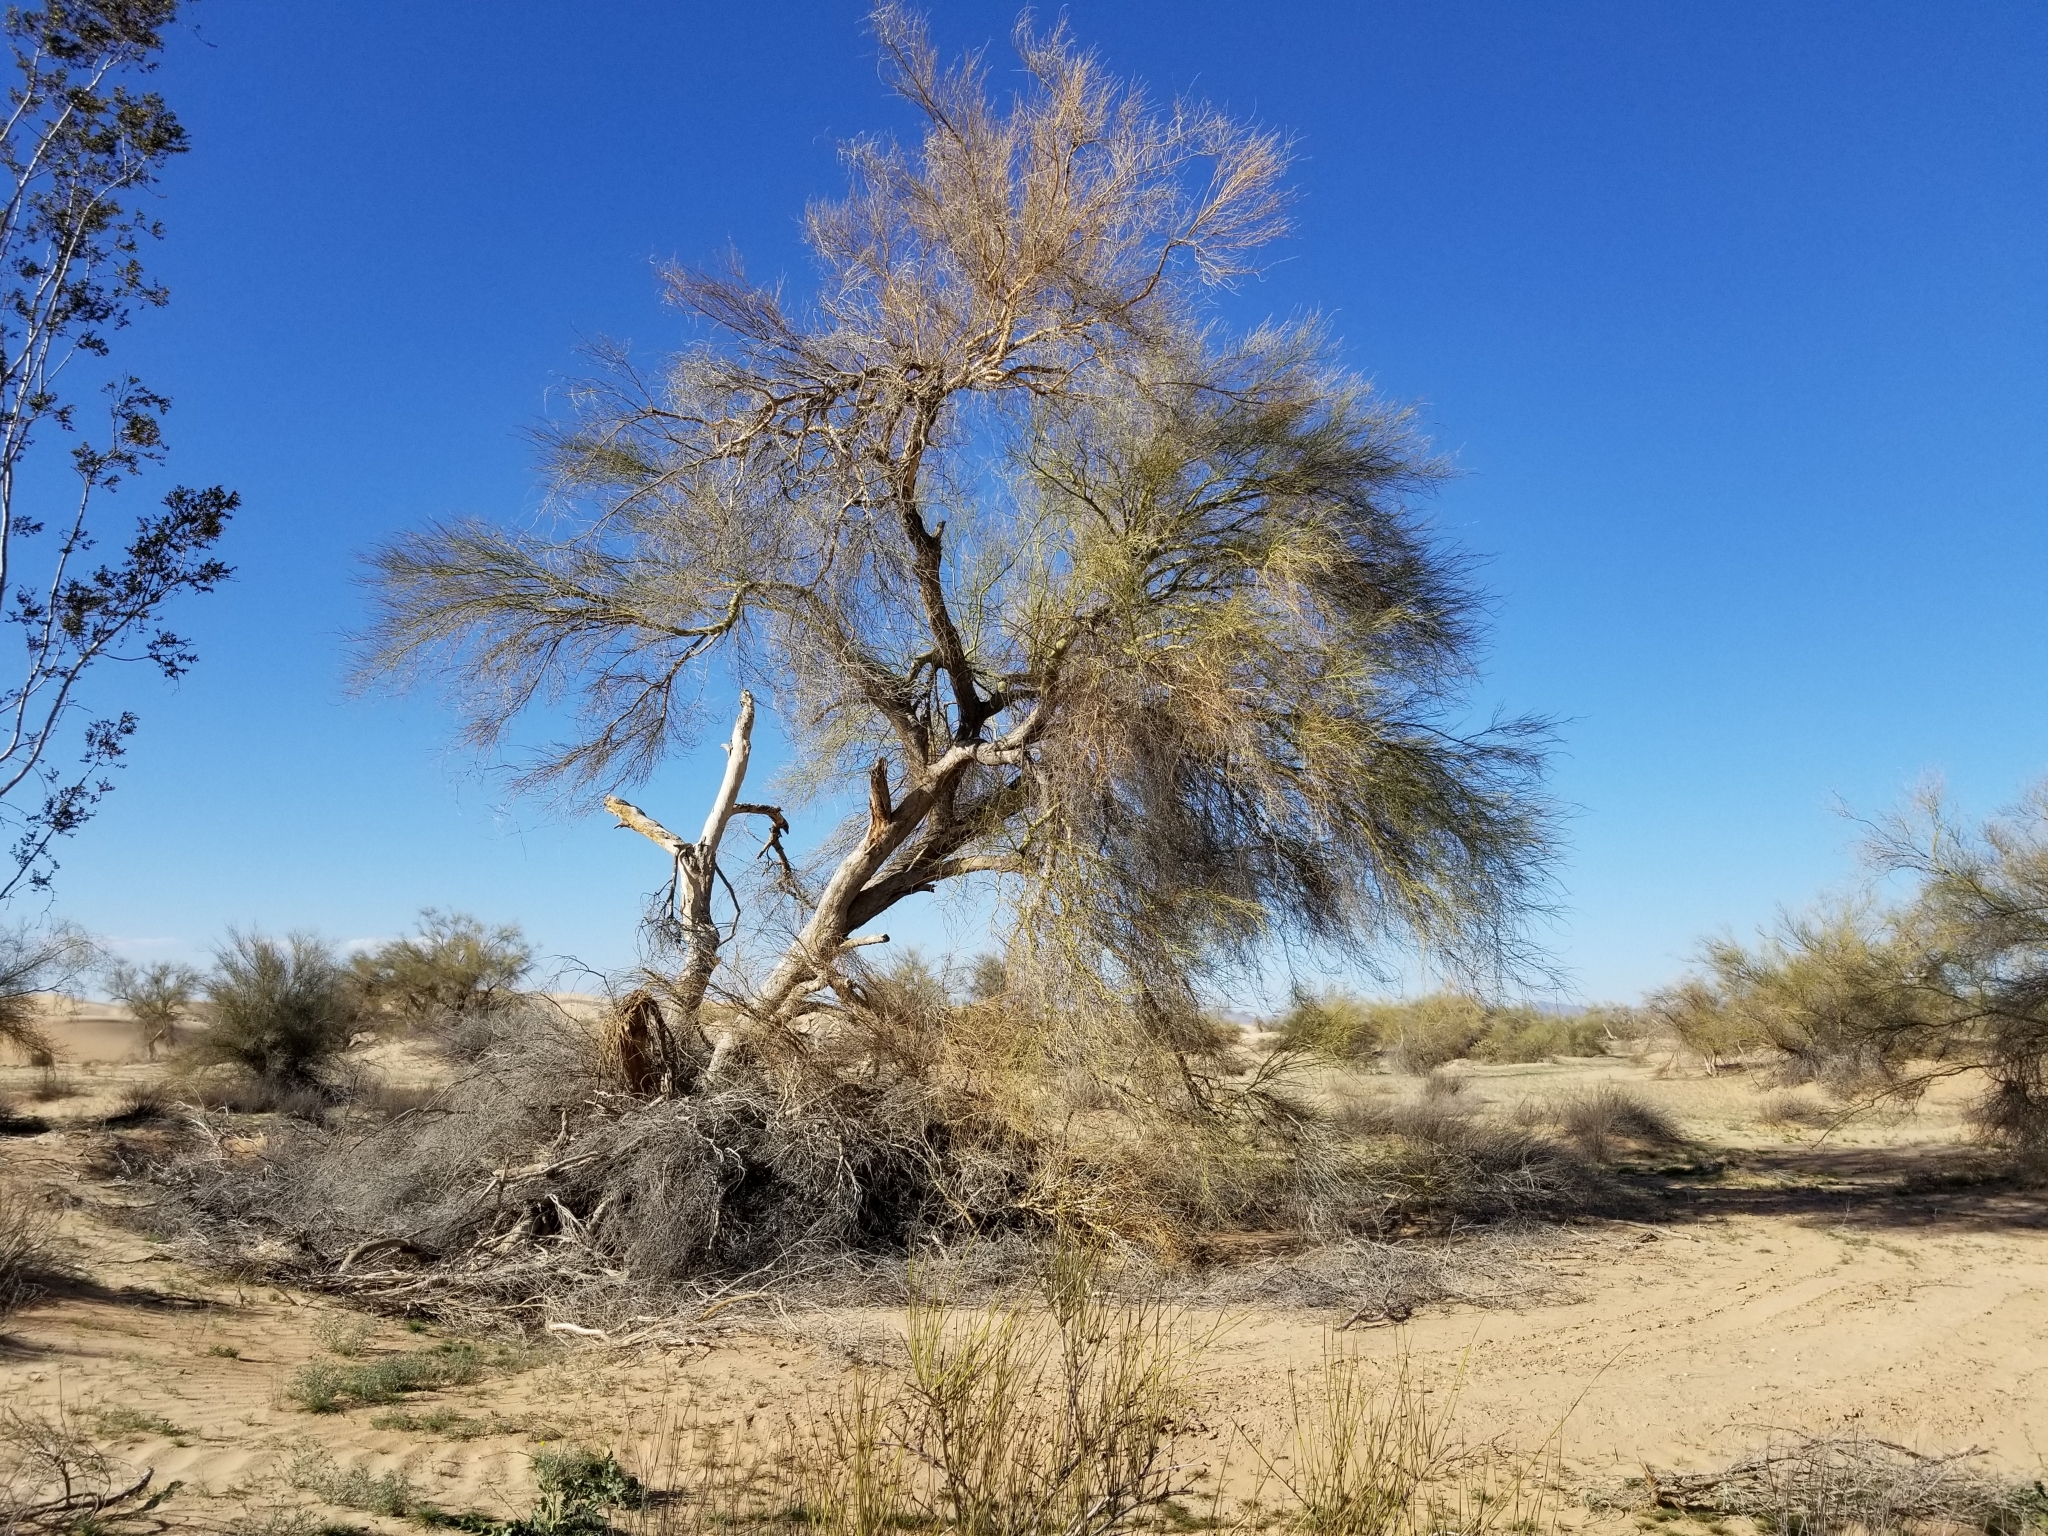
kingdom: Plantae
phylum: Tracheophyta
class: Magnoliopsida
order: Fabales
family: Fabaceae
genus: Parkinsonia
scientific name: Parkinsonia florida
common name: Blue paloverde
